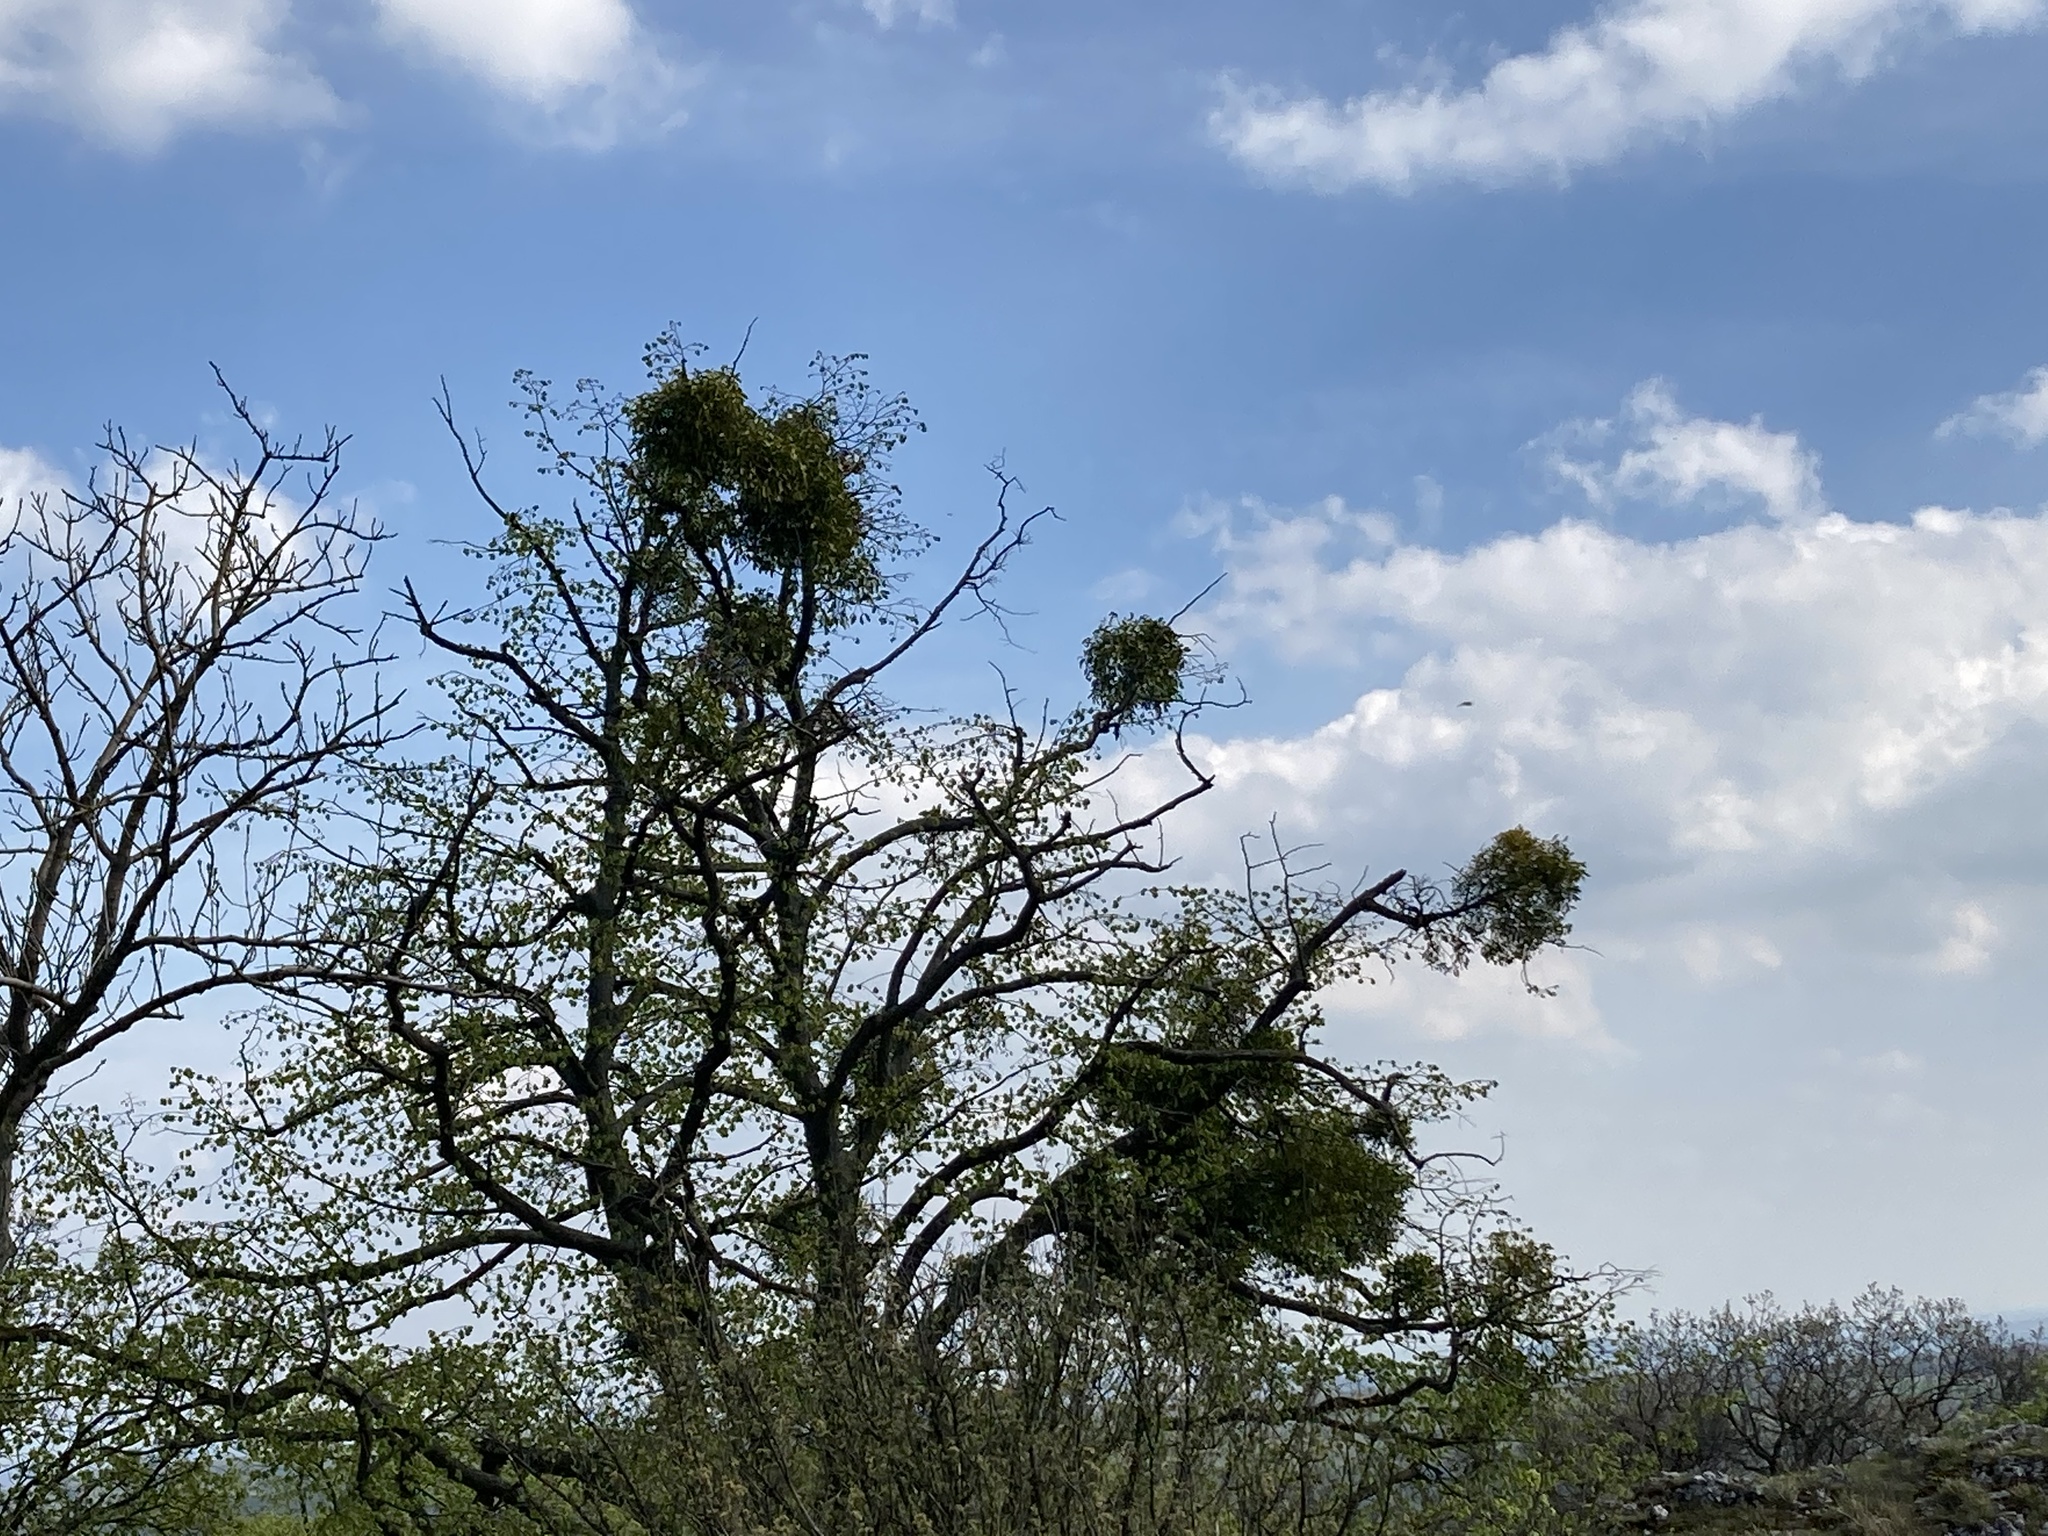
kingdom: Plantae
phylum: Tracheophyta
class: Magnoliopsida
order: Santalales
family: Viscaceae
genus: Viscum
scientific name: Viscum laxum
